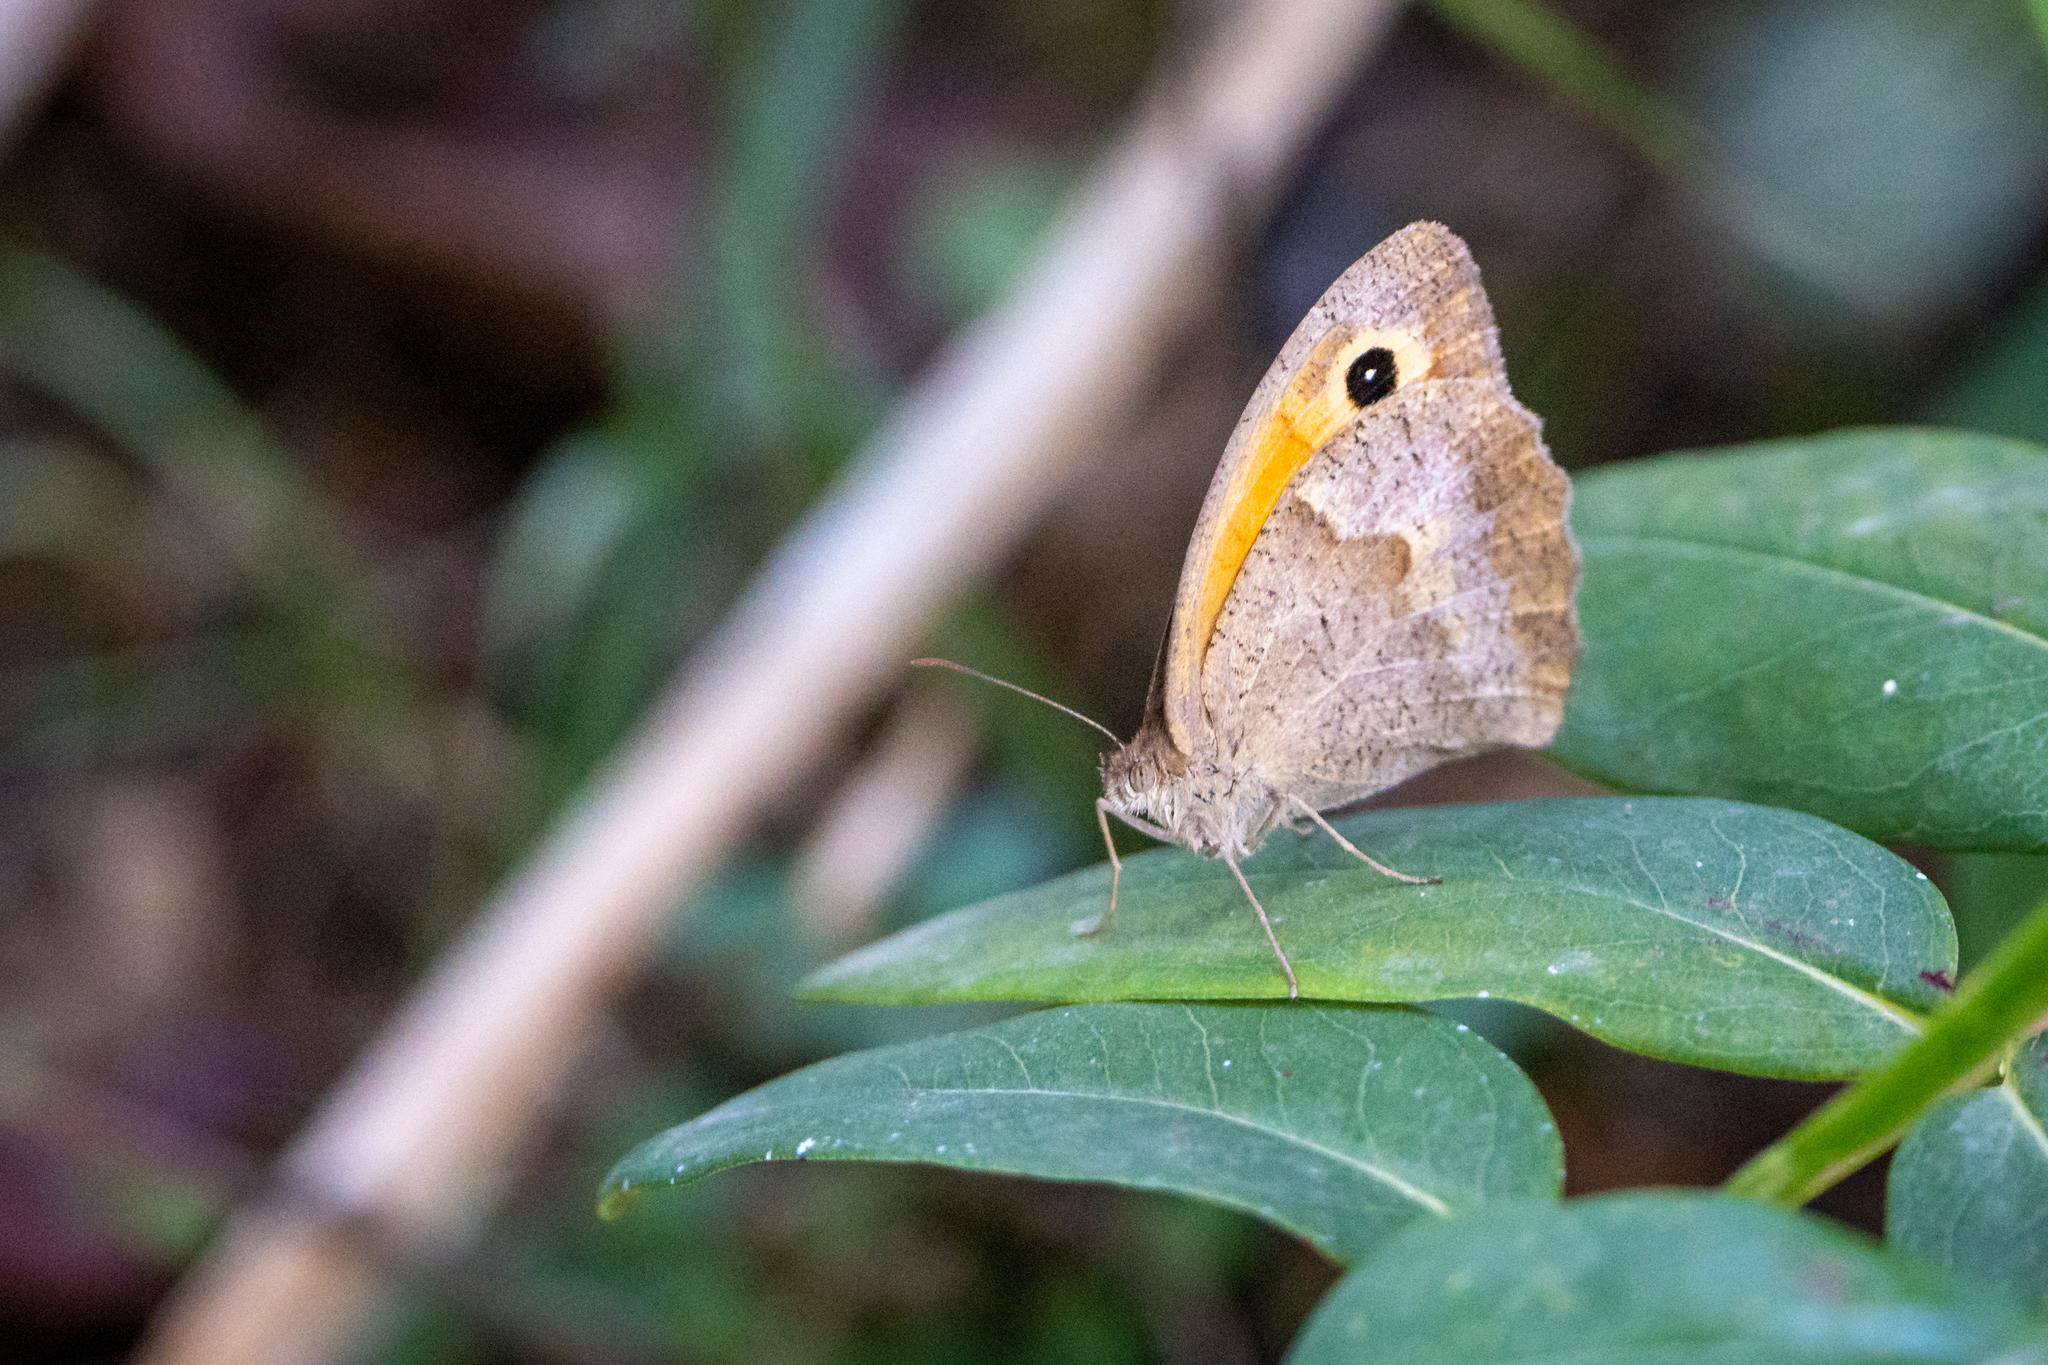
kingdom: Animalia
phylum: Arthropoda
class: Insecta
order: Lepidoptera
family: Nymphalidae
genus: Maniola
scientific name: Maniola jurtina
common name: Meadow brown
